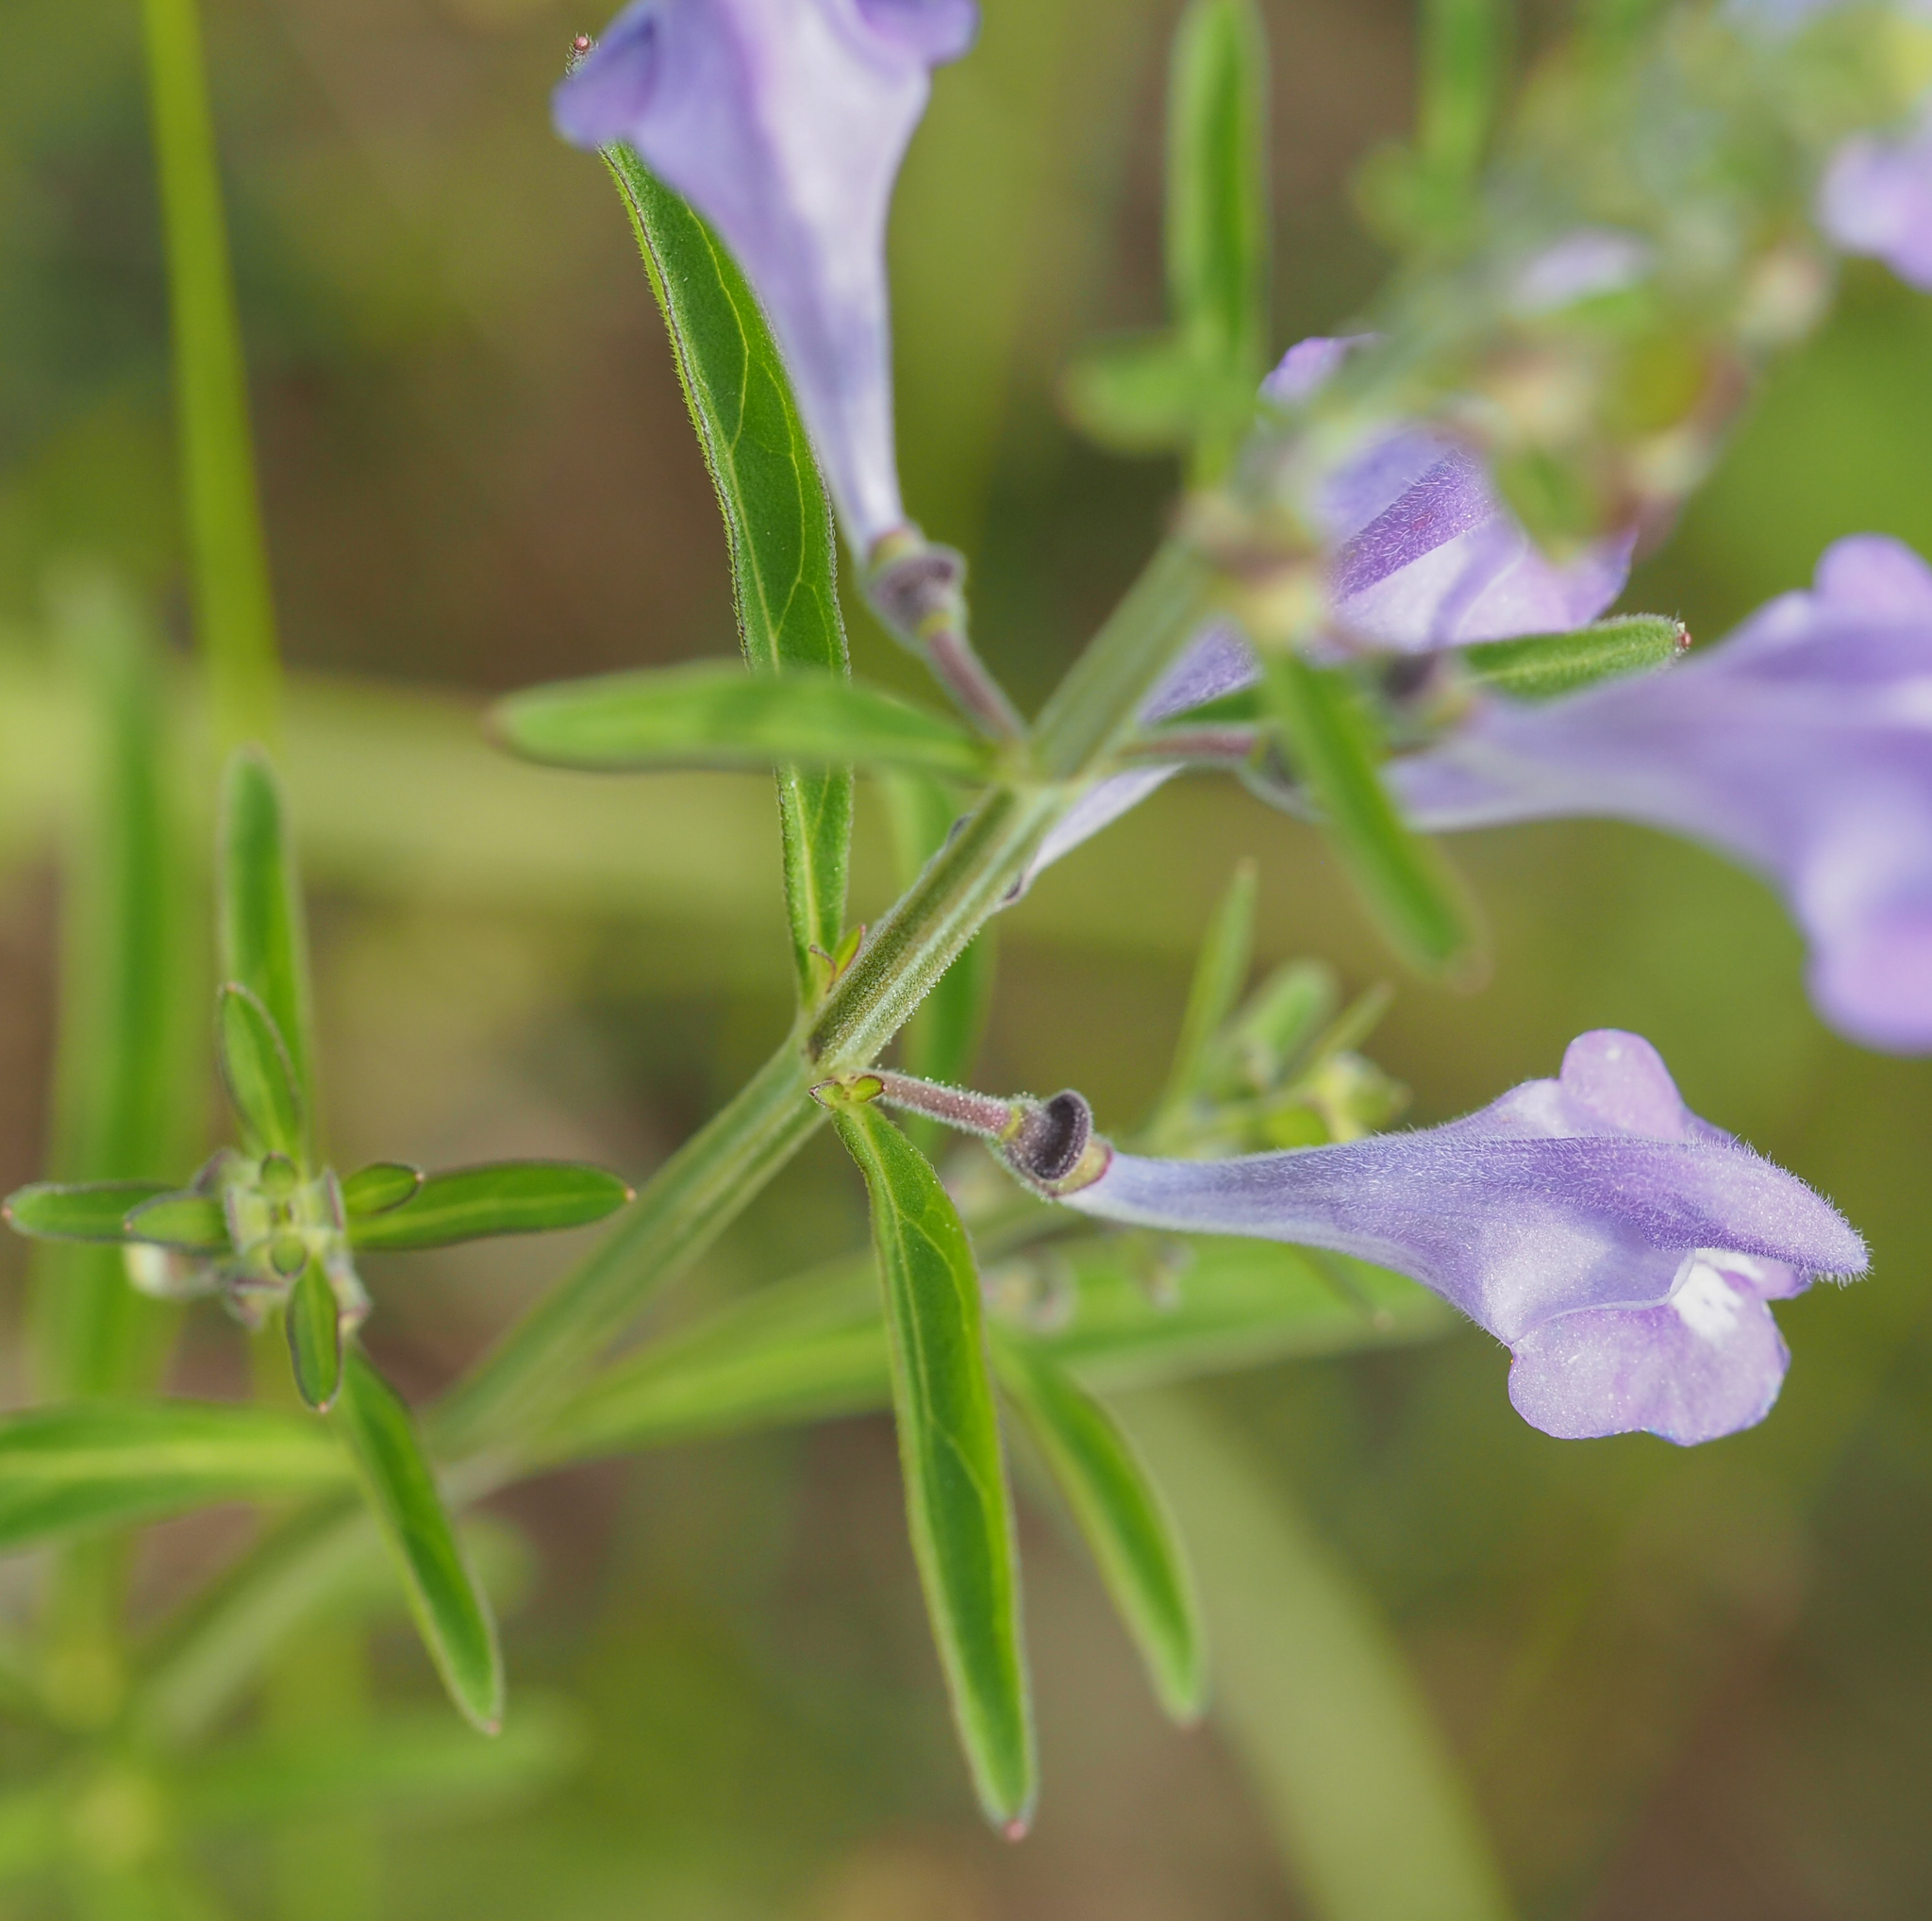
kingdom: Plantae
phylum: Tracheophyta
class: Magnoliopsida
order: Lamiales
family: Lamiaceae
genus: Scutellaria
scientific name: Scutellaria integrifolia
